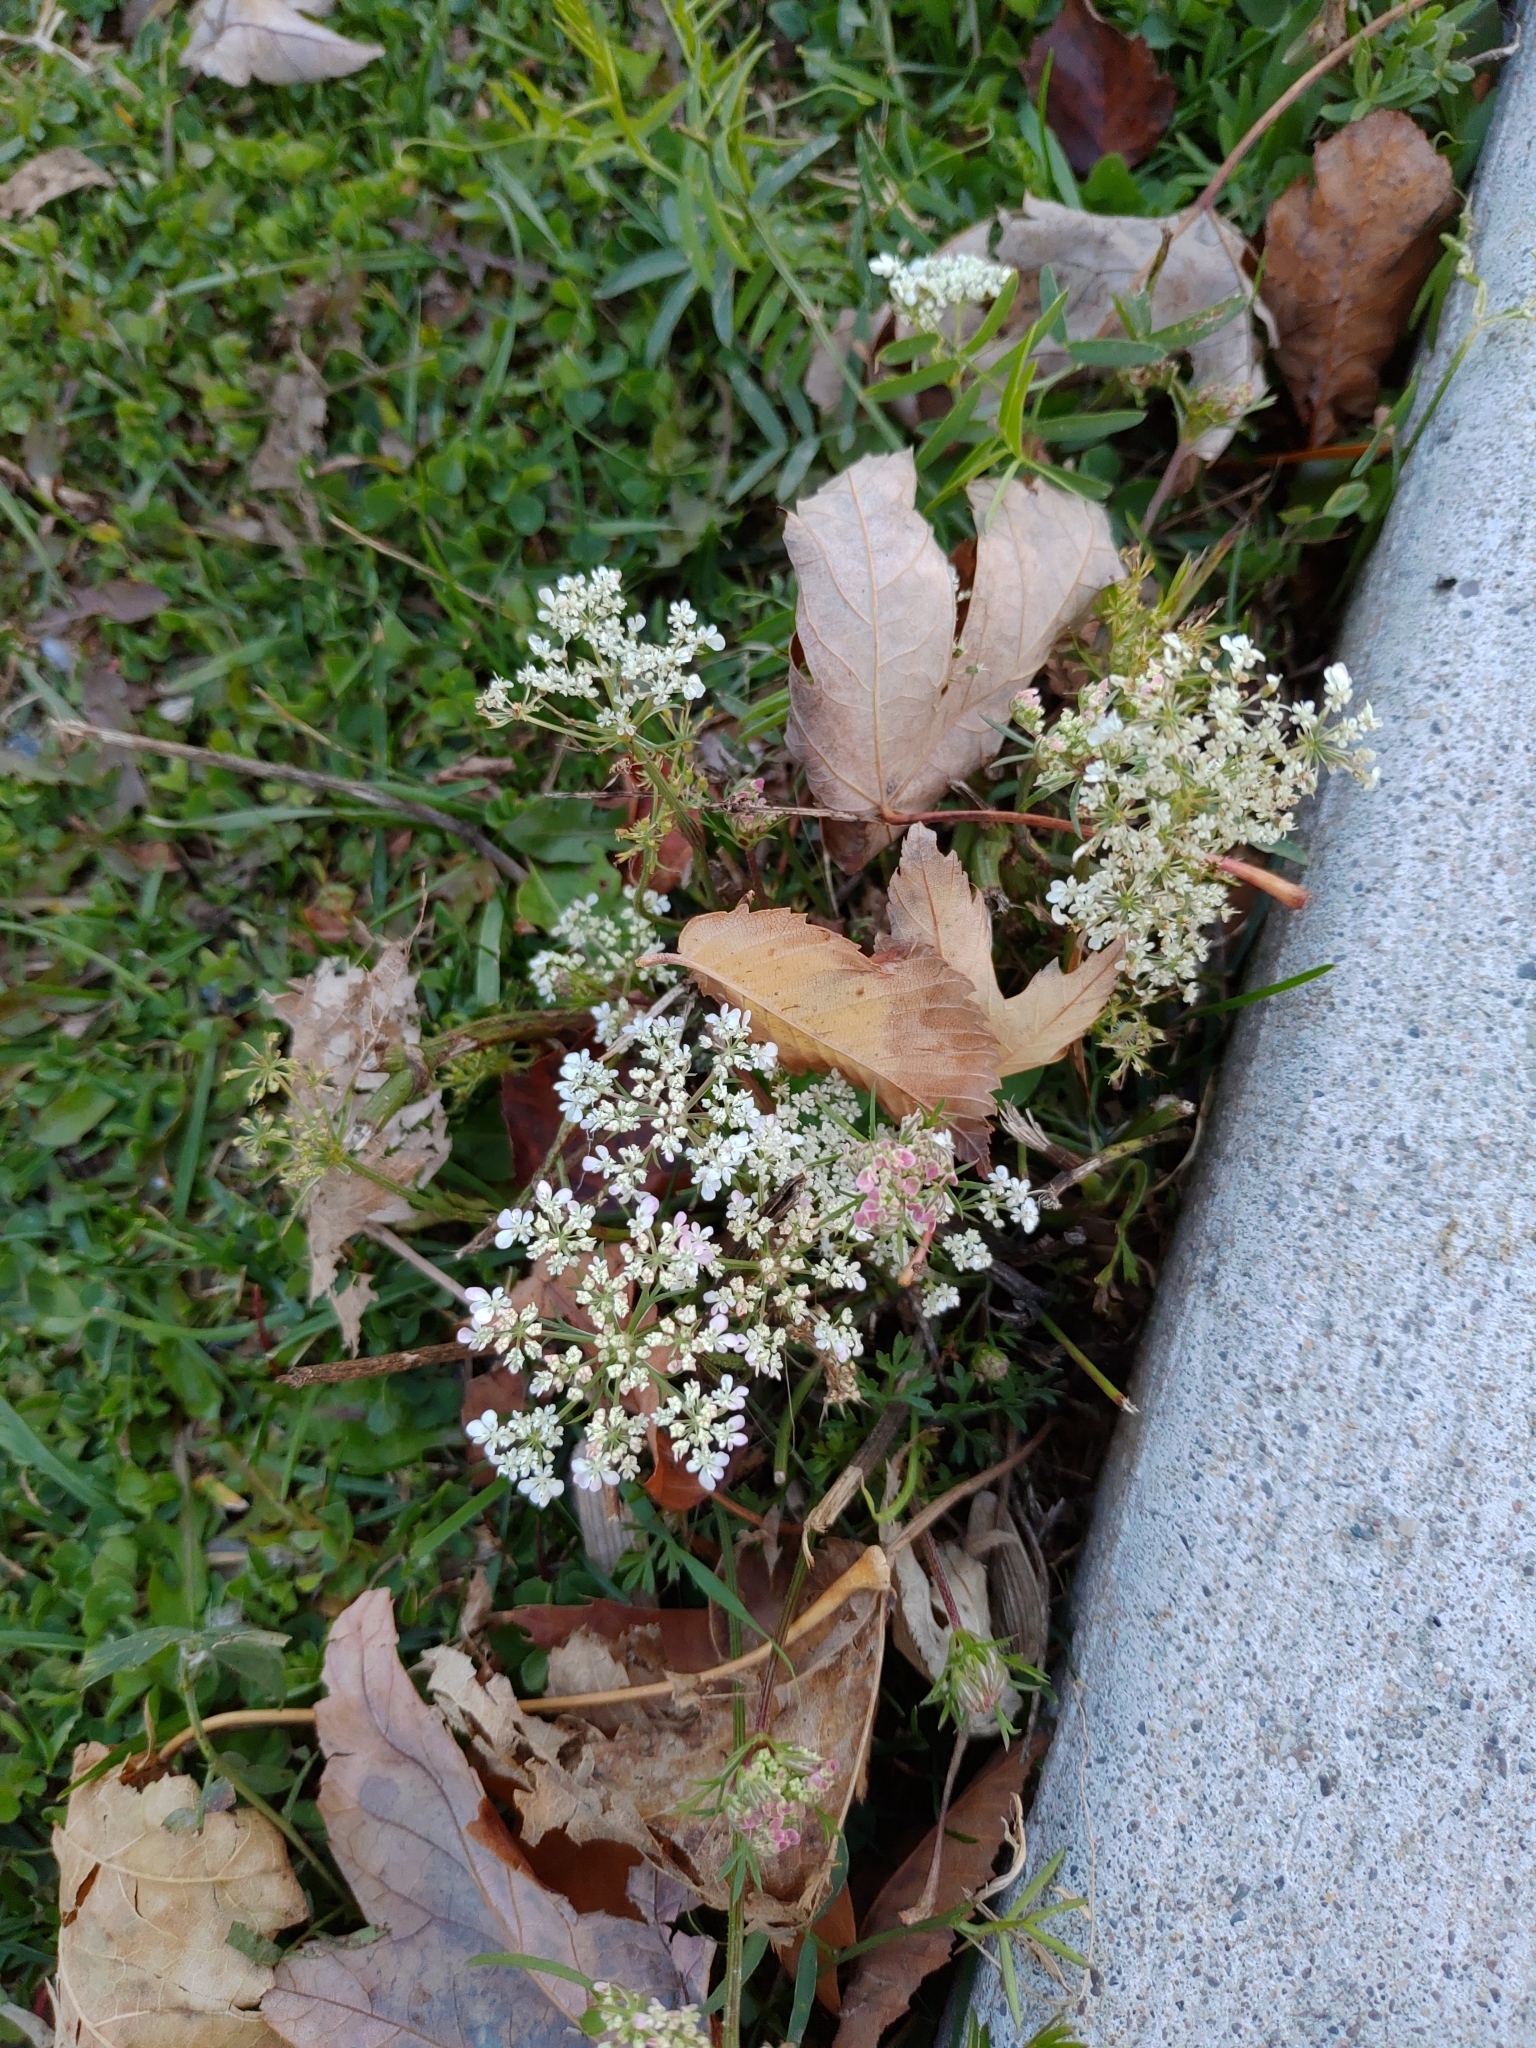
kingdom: Plantae
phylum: Tracheophyta
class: Magnoliopsida
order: Apiales
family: Apiaceae
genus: Daucus
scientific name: Daucus carota
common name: Wild carrot
